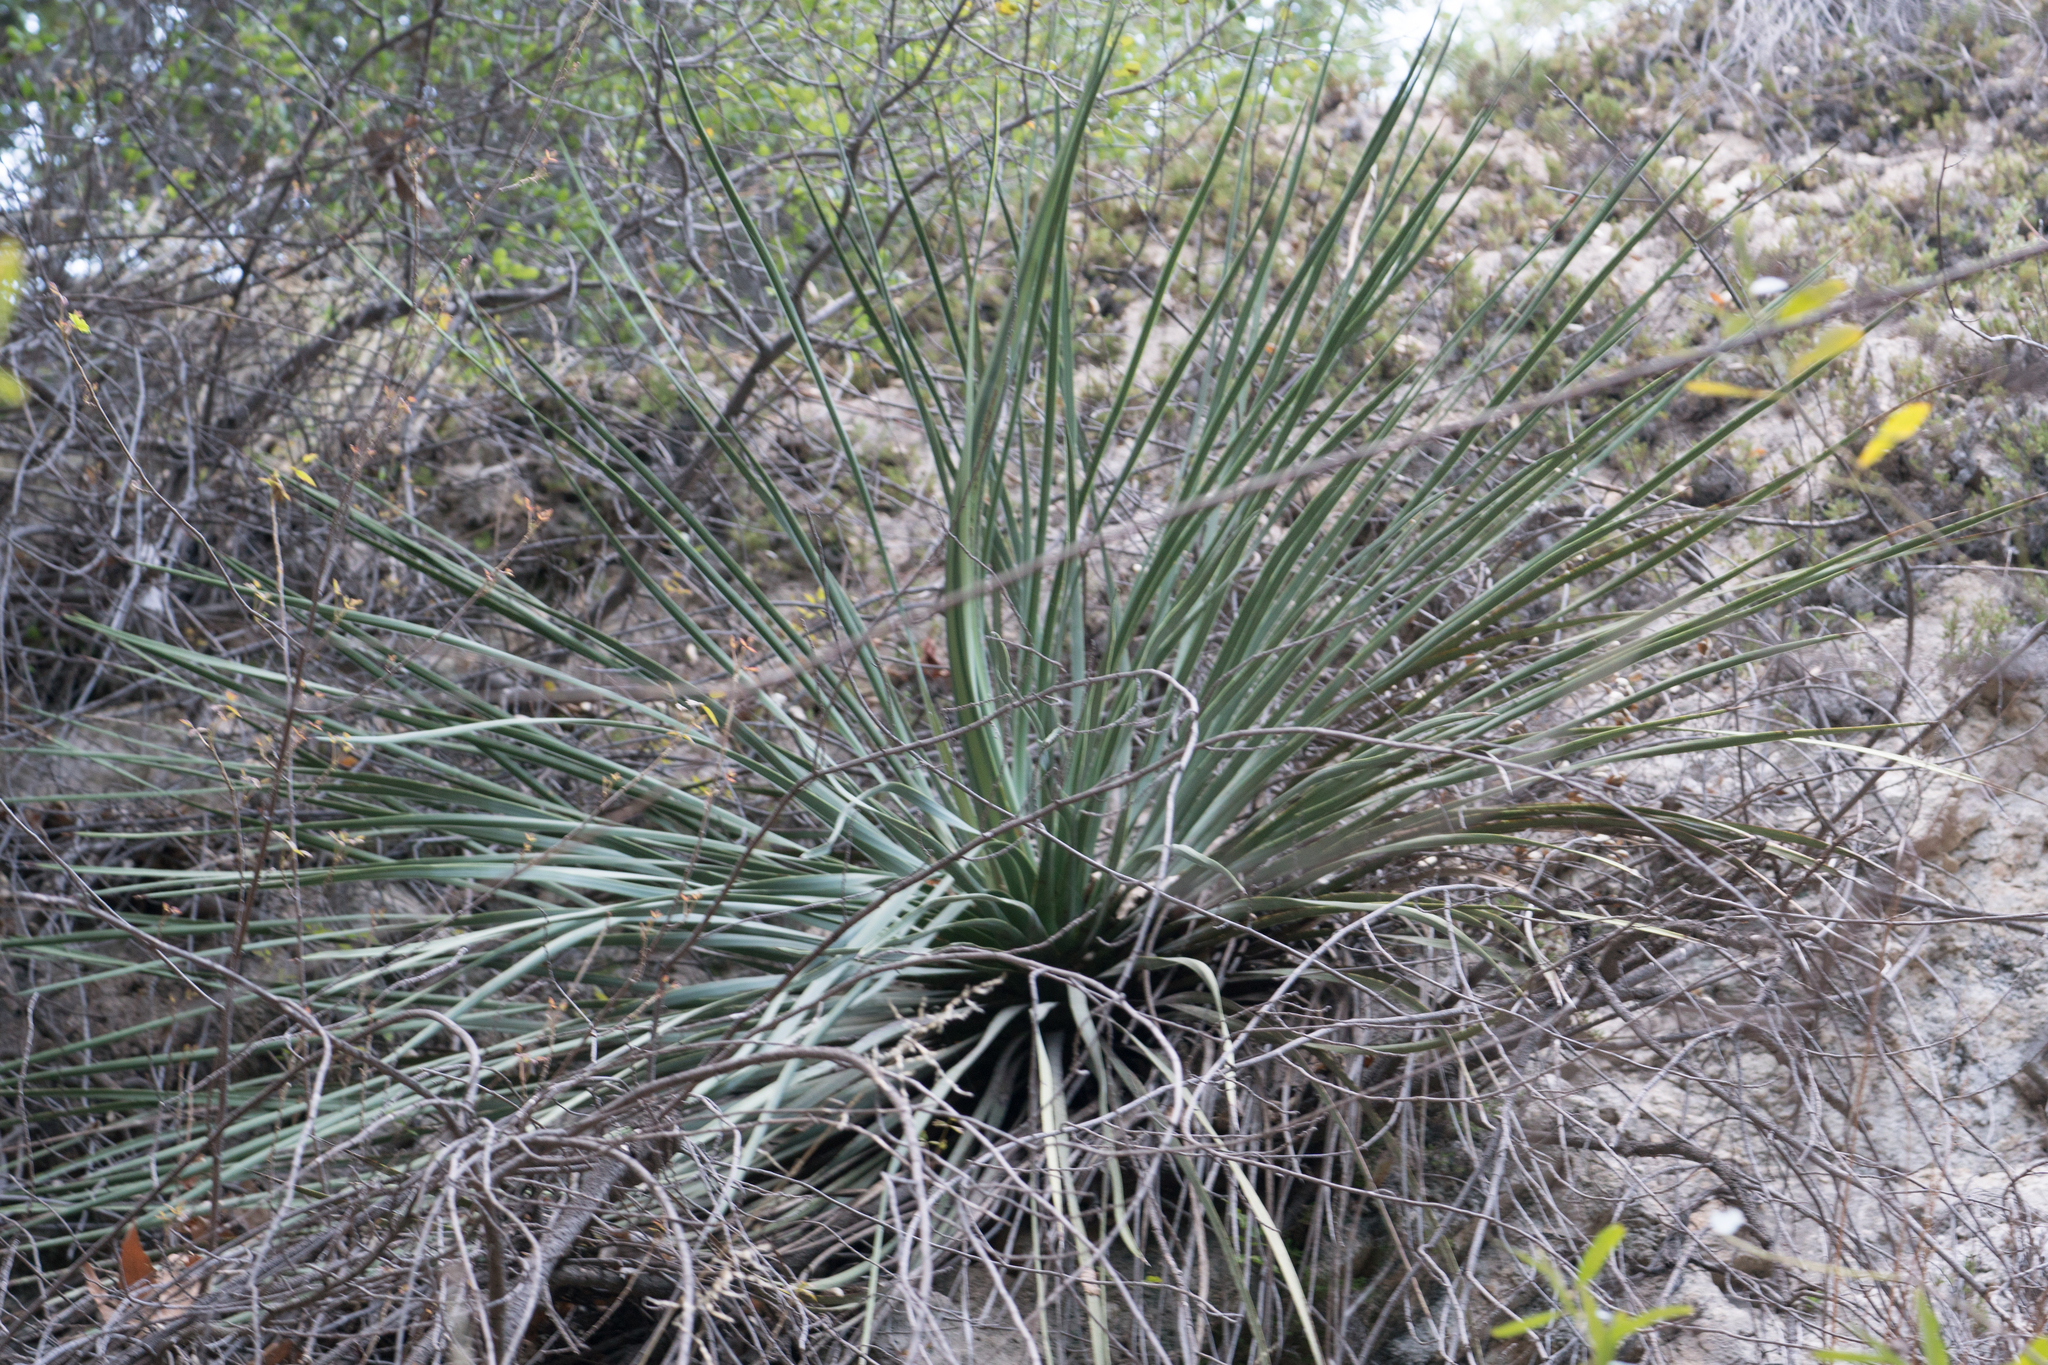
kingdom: Plantae
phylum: Tracheophyta
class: Liliopsida
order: Asparagales
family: Asparagaceae
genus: Hesperoyucca
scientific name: Hesperoyucca whipplei
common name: Our lord's-candle
